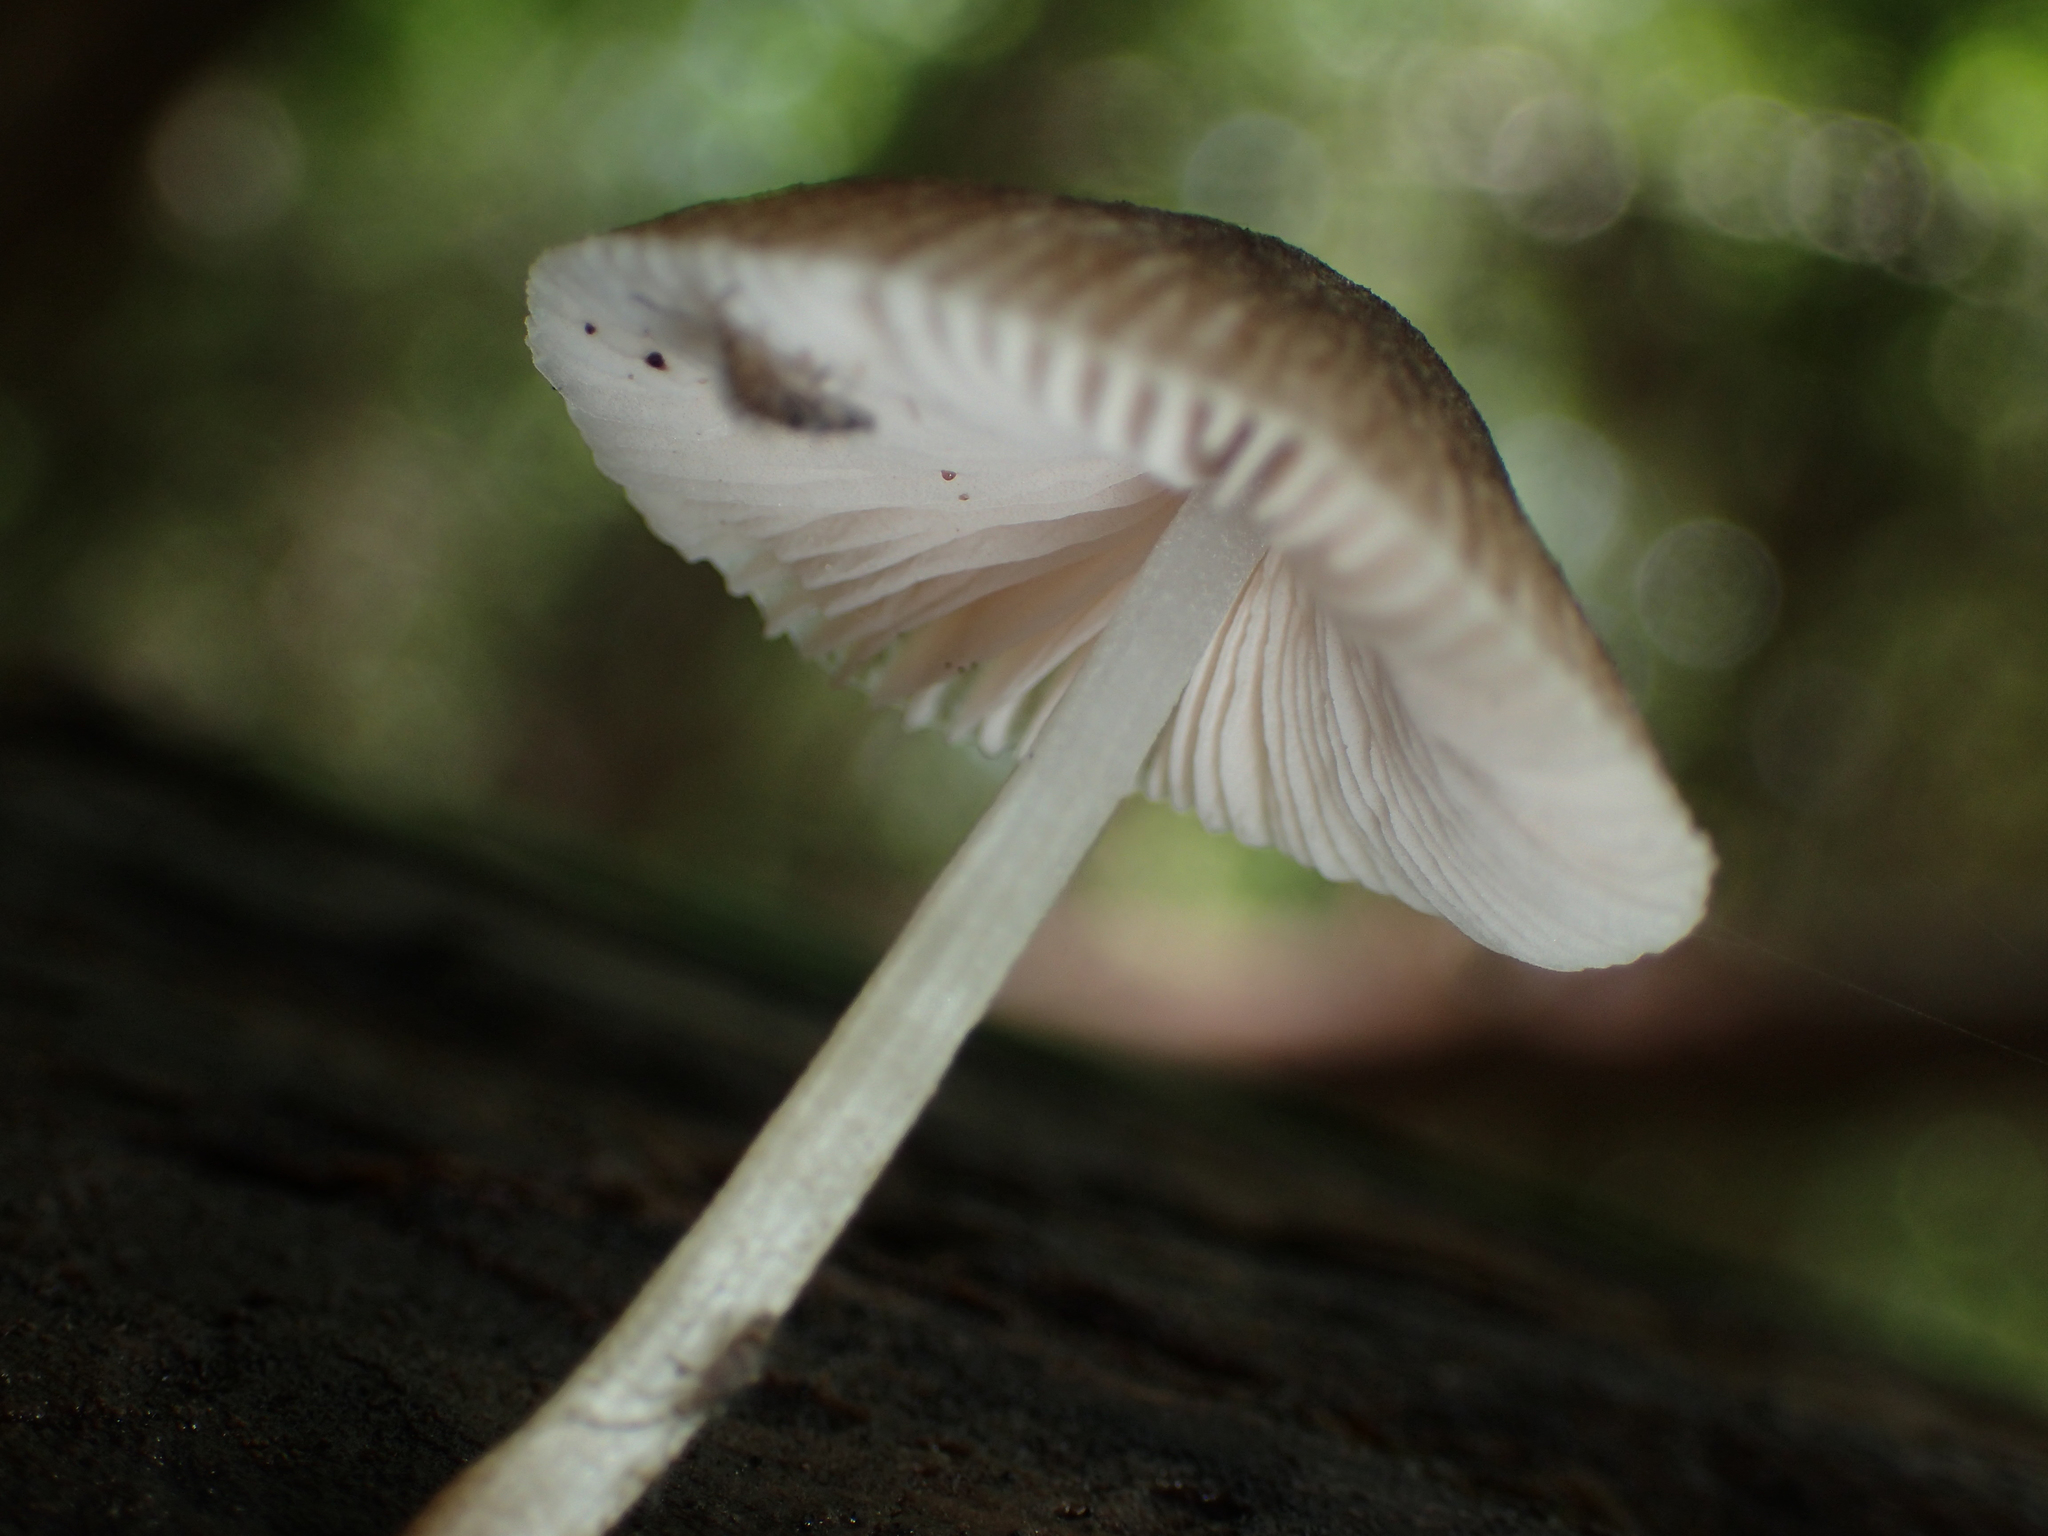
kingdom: Fungi
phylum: Basidiomycota
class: Agaricomycetes
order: Agaricales
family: Pluteaceae
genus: Pluteus
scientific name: Pluteus longistriatus
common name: Pleated pluteus
